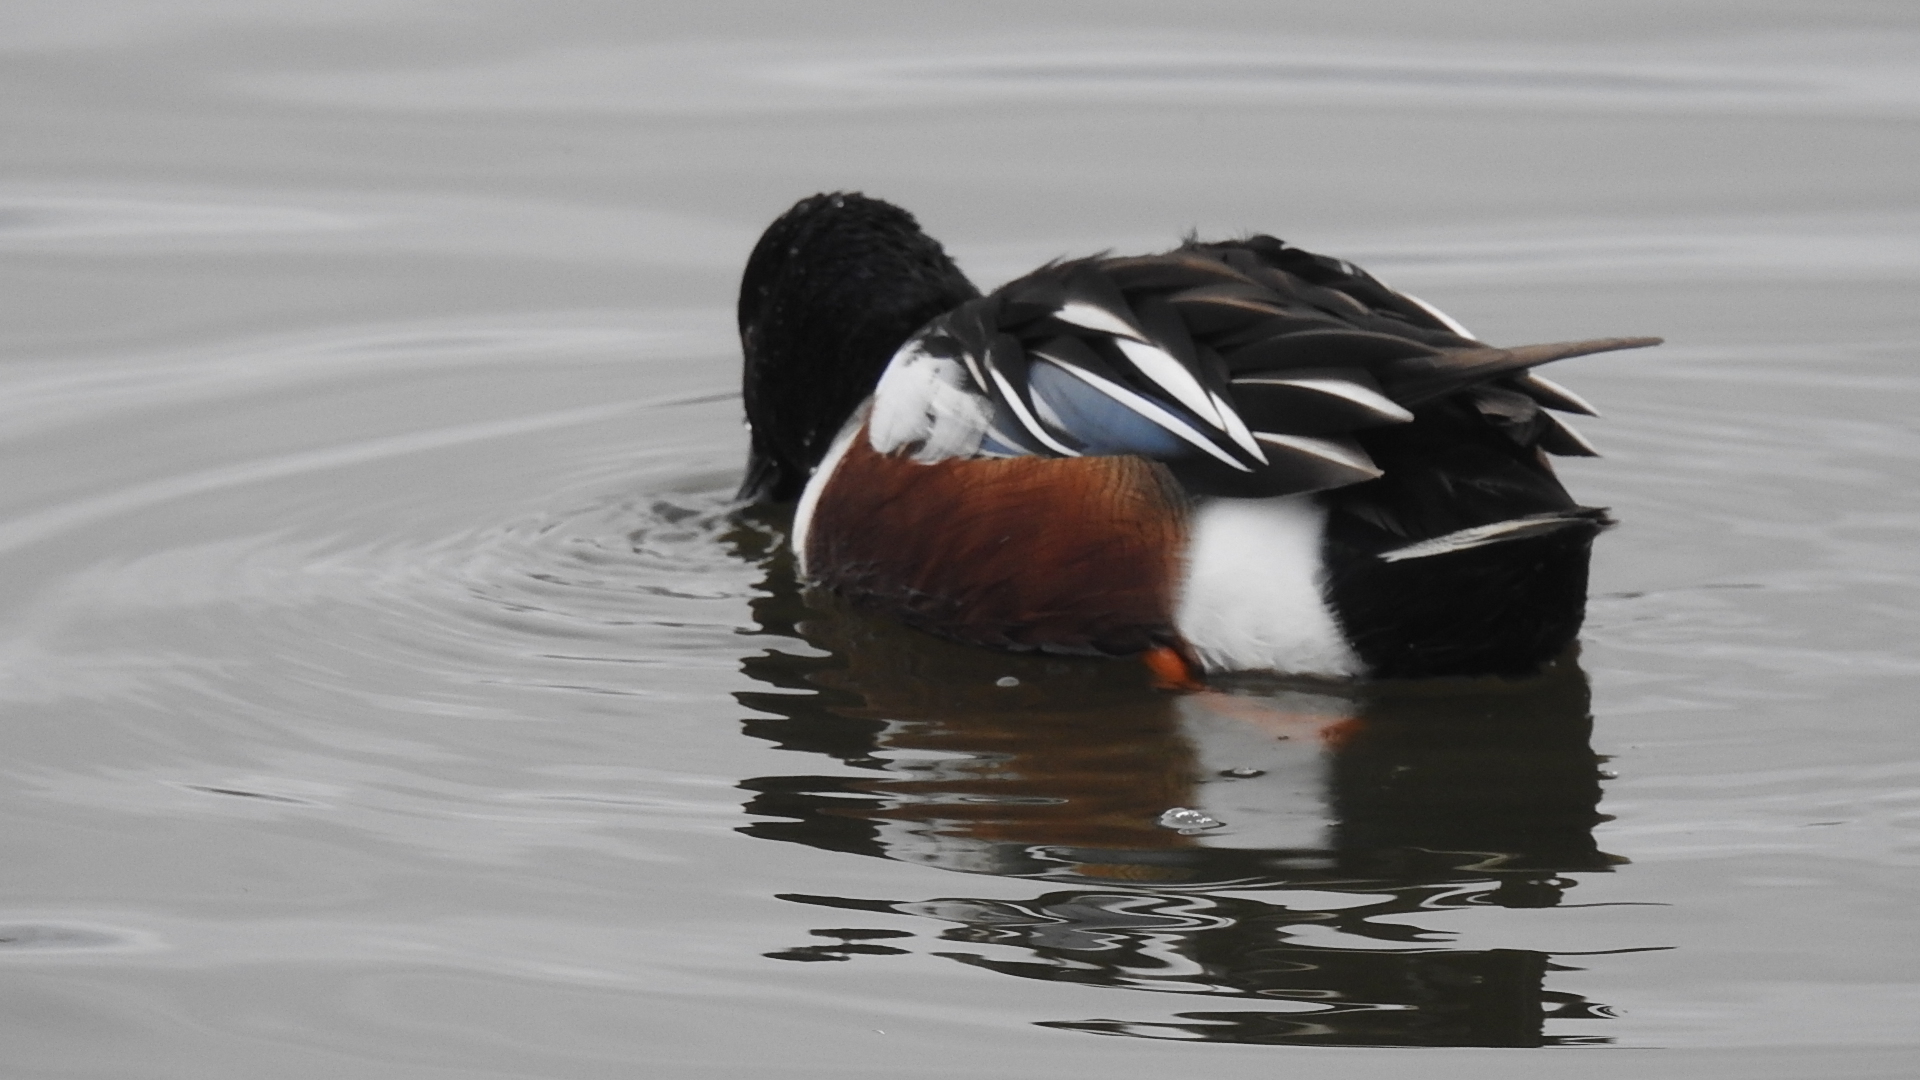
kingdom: Animalia
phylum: Chordata
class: Aves
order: Anseriformes
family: Anatidae
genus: Spatula
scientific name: Spatula clypeata
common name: Northern shoveler
